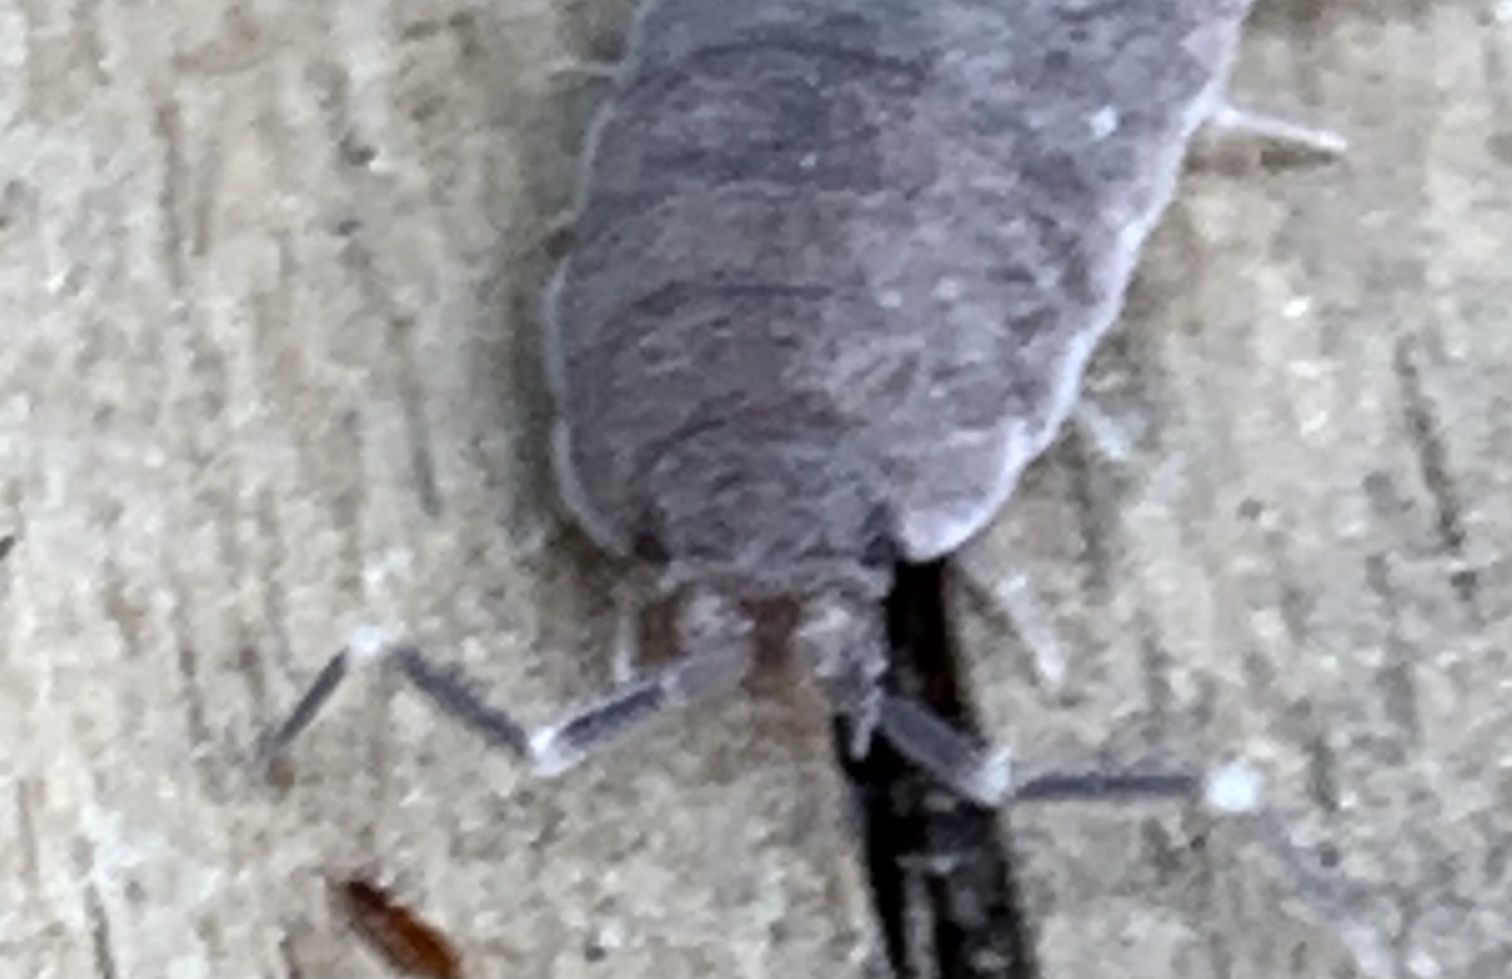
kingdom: Animalia
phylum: Arthropoda
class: Malacostraca
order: Isopoda
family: Porcellionidae
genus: Porcellionides
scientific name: Porcellionides pruinosus
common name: Plum woodlouse
